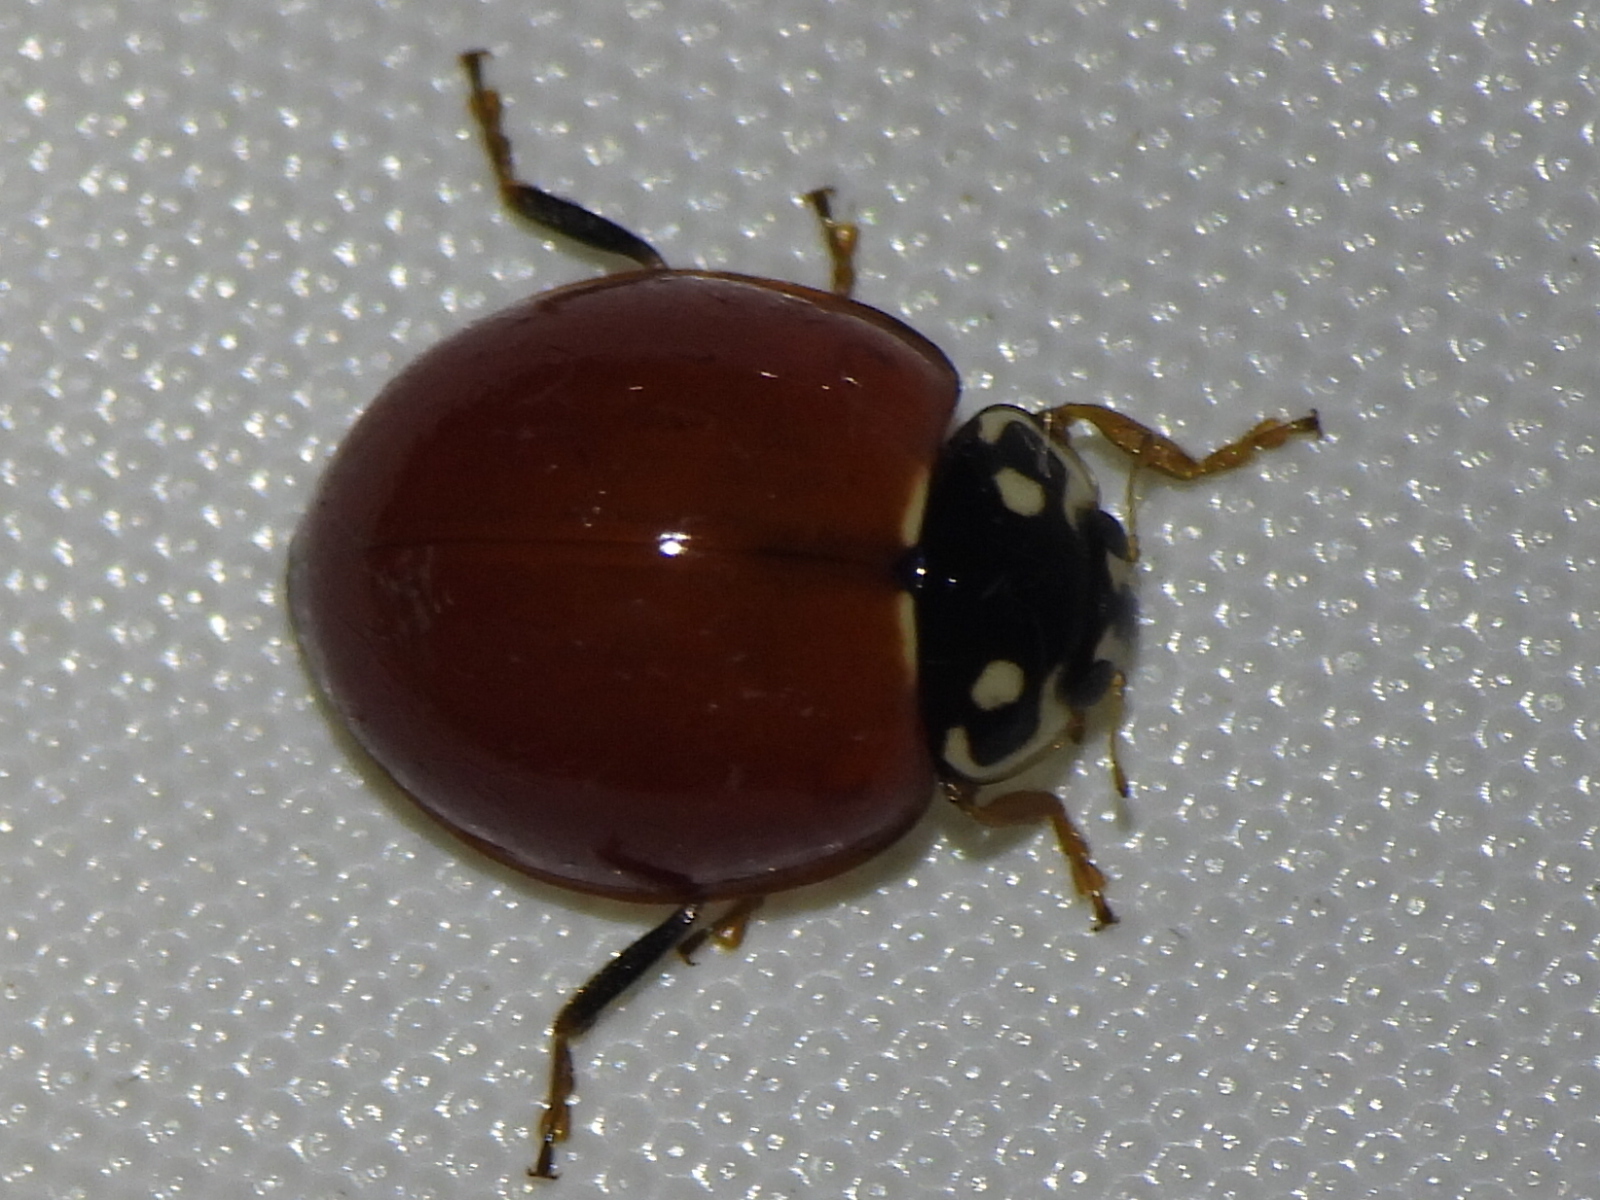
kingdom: Animalia
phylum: Arthropoda
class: Insecta
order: Coleoptera
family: Coccinellidae
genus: Cycloneda
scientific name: Cycloneda sanguinea
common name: Ladybird beetle
